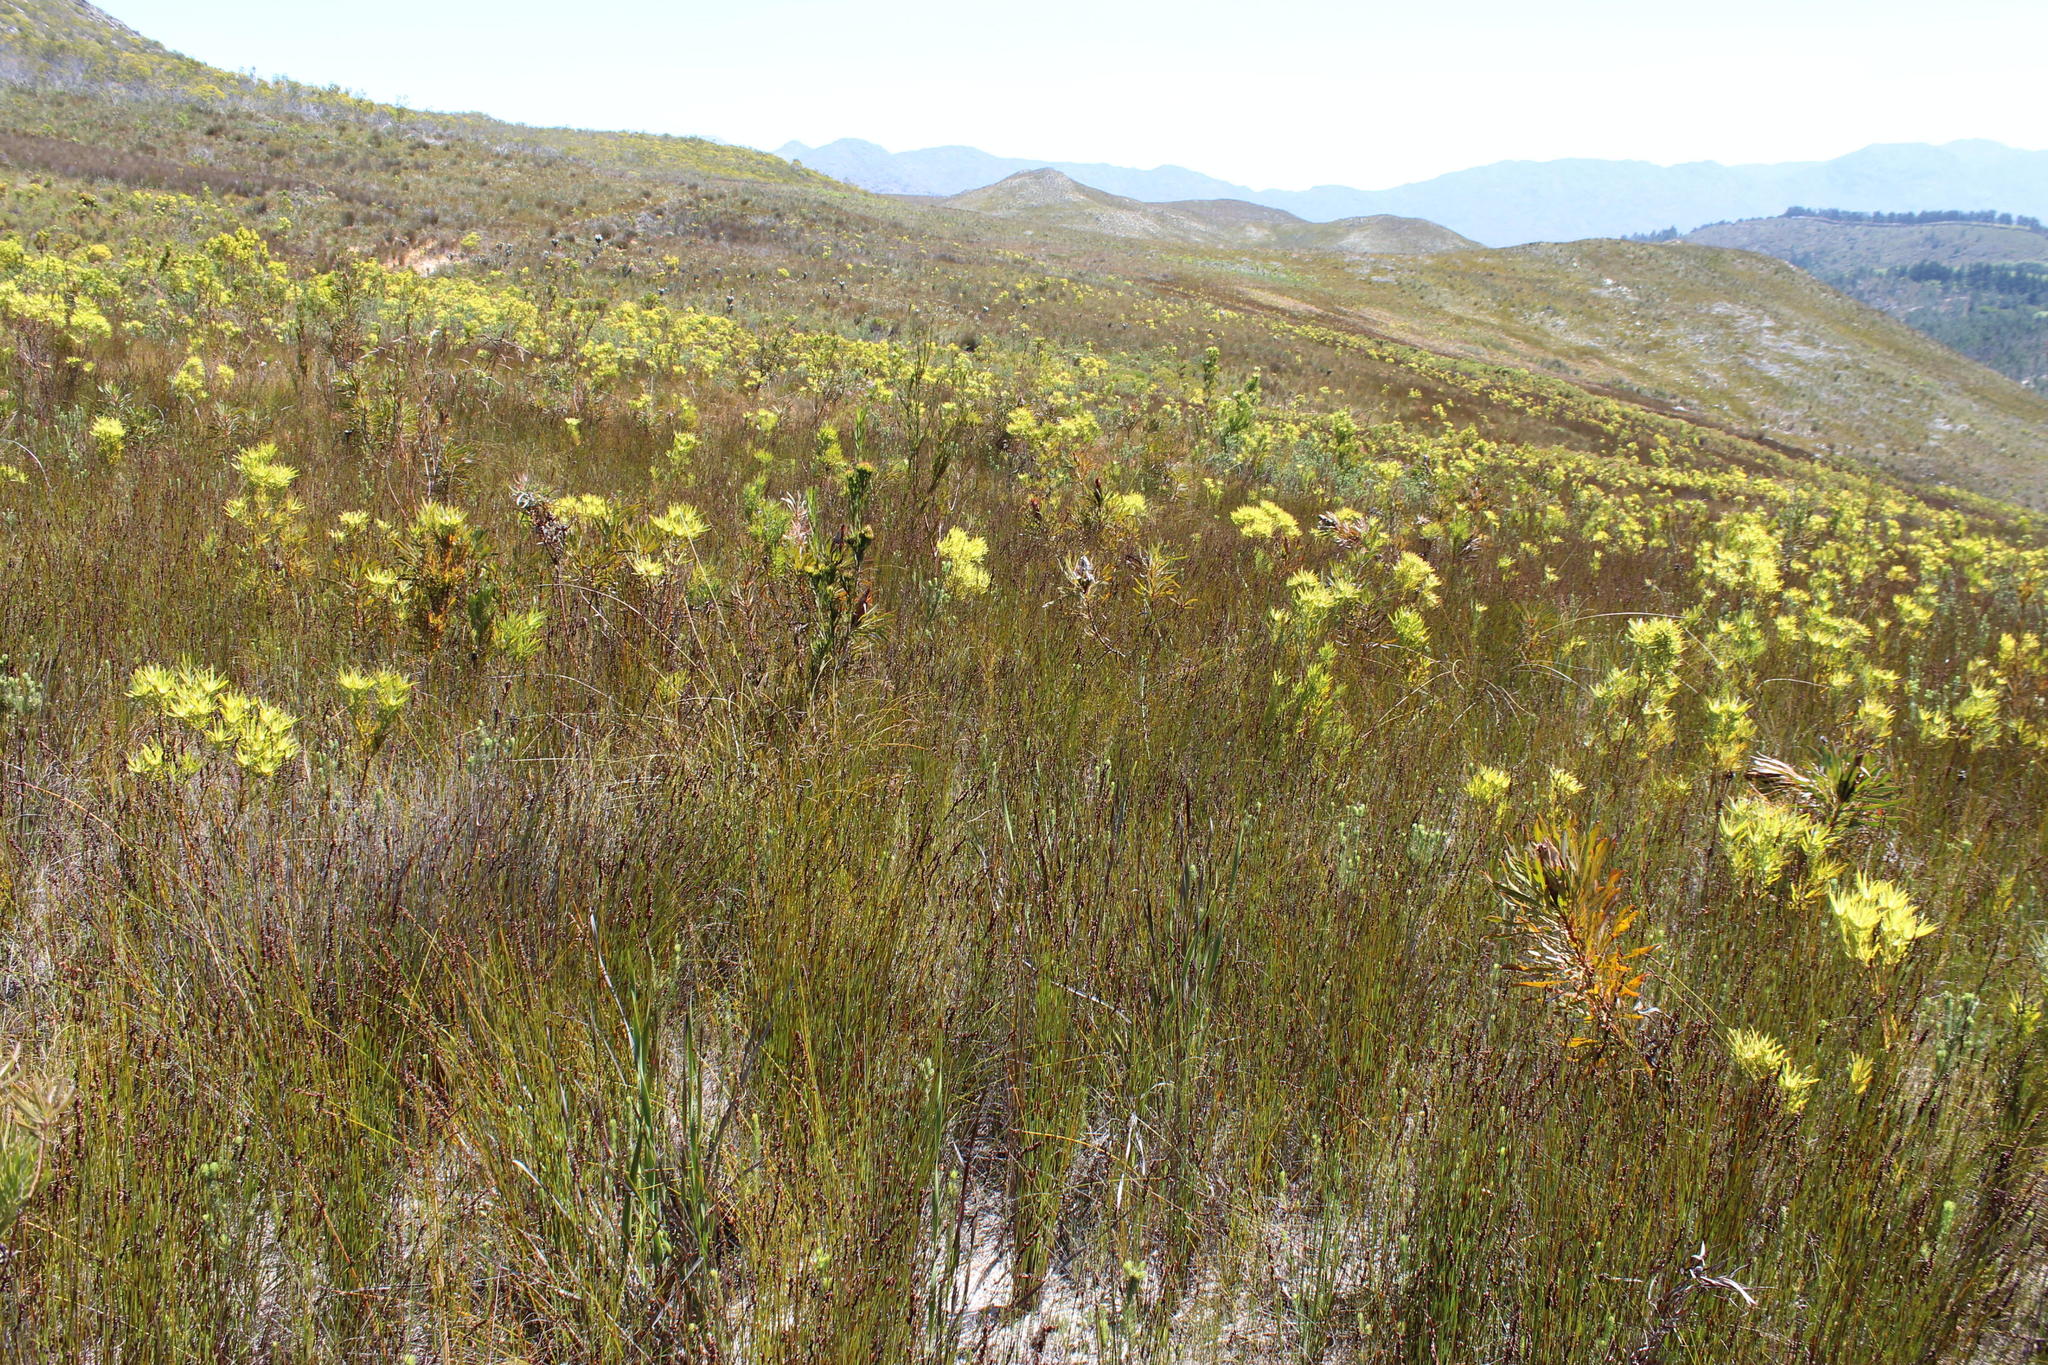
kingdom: Plantae
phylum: Tracheophyta
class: Magnoliopsida
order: Proteales
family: Proteaceae
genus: Leucadendron
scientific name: Leucadendron xanthoconus
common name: Sickle-leaf conebush
